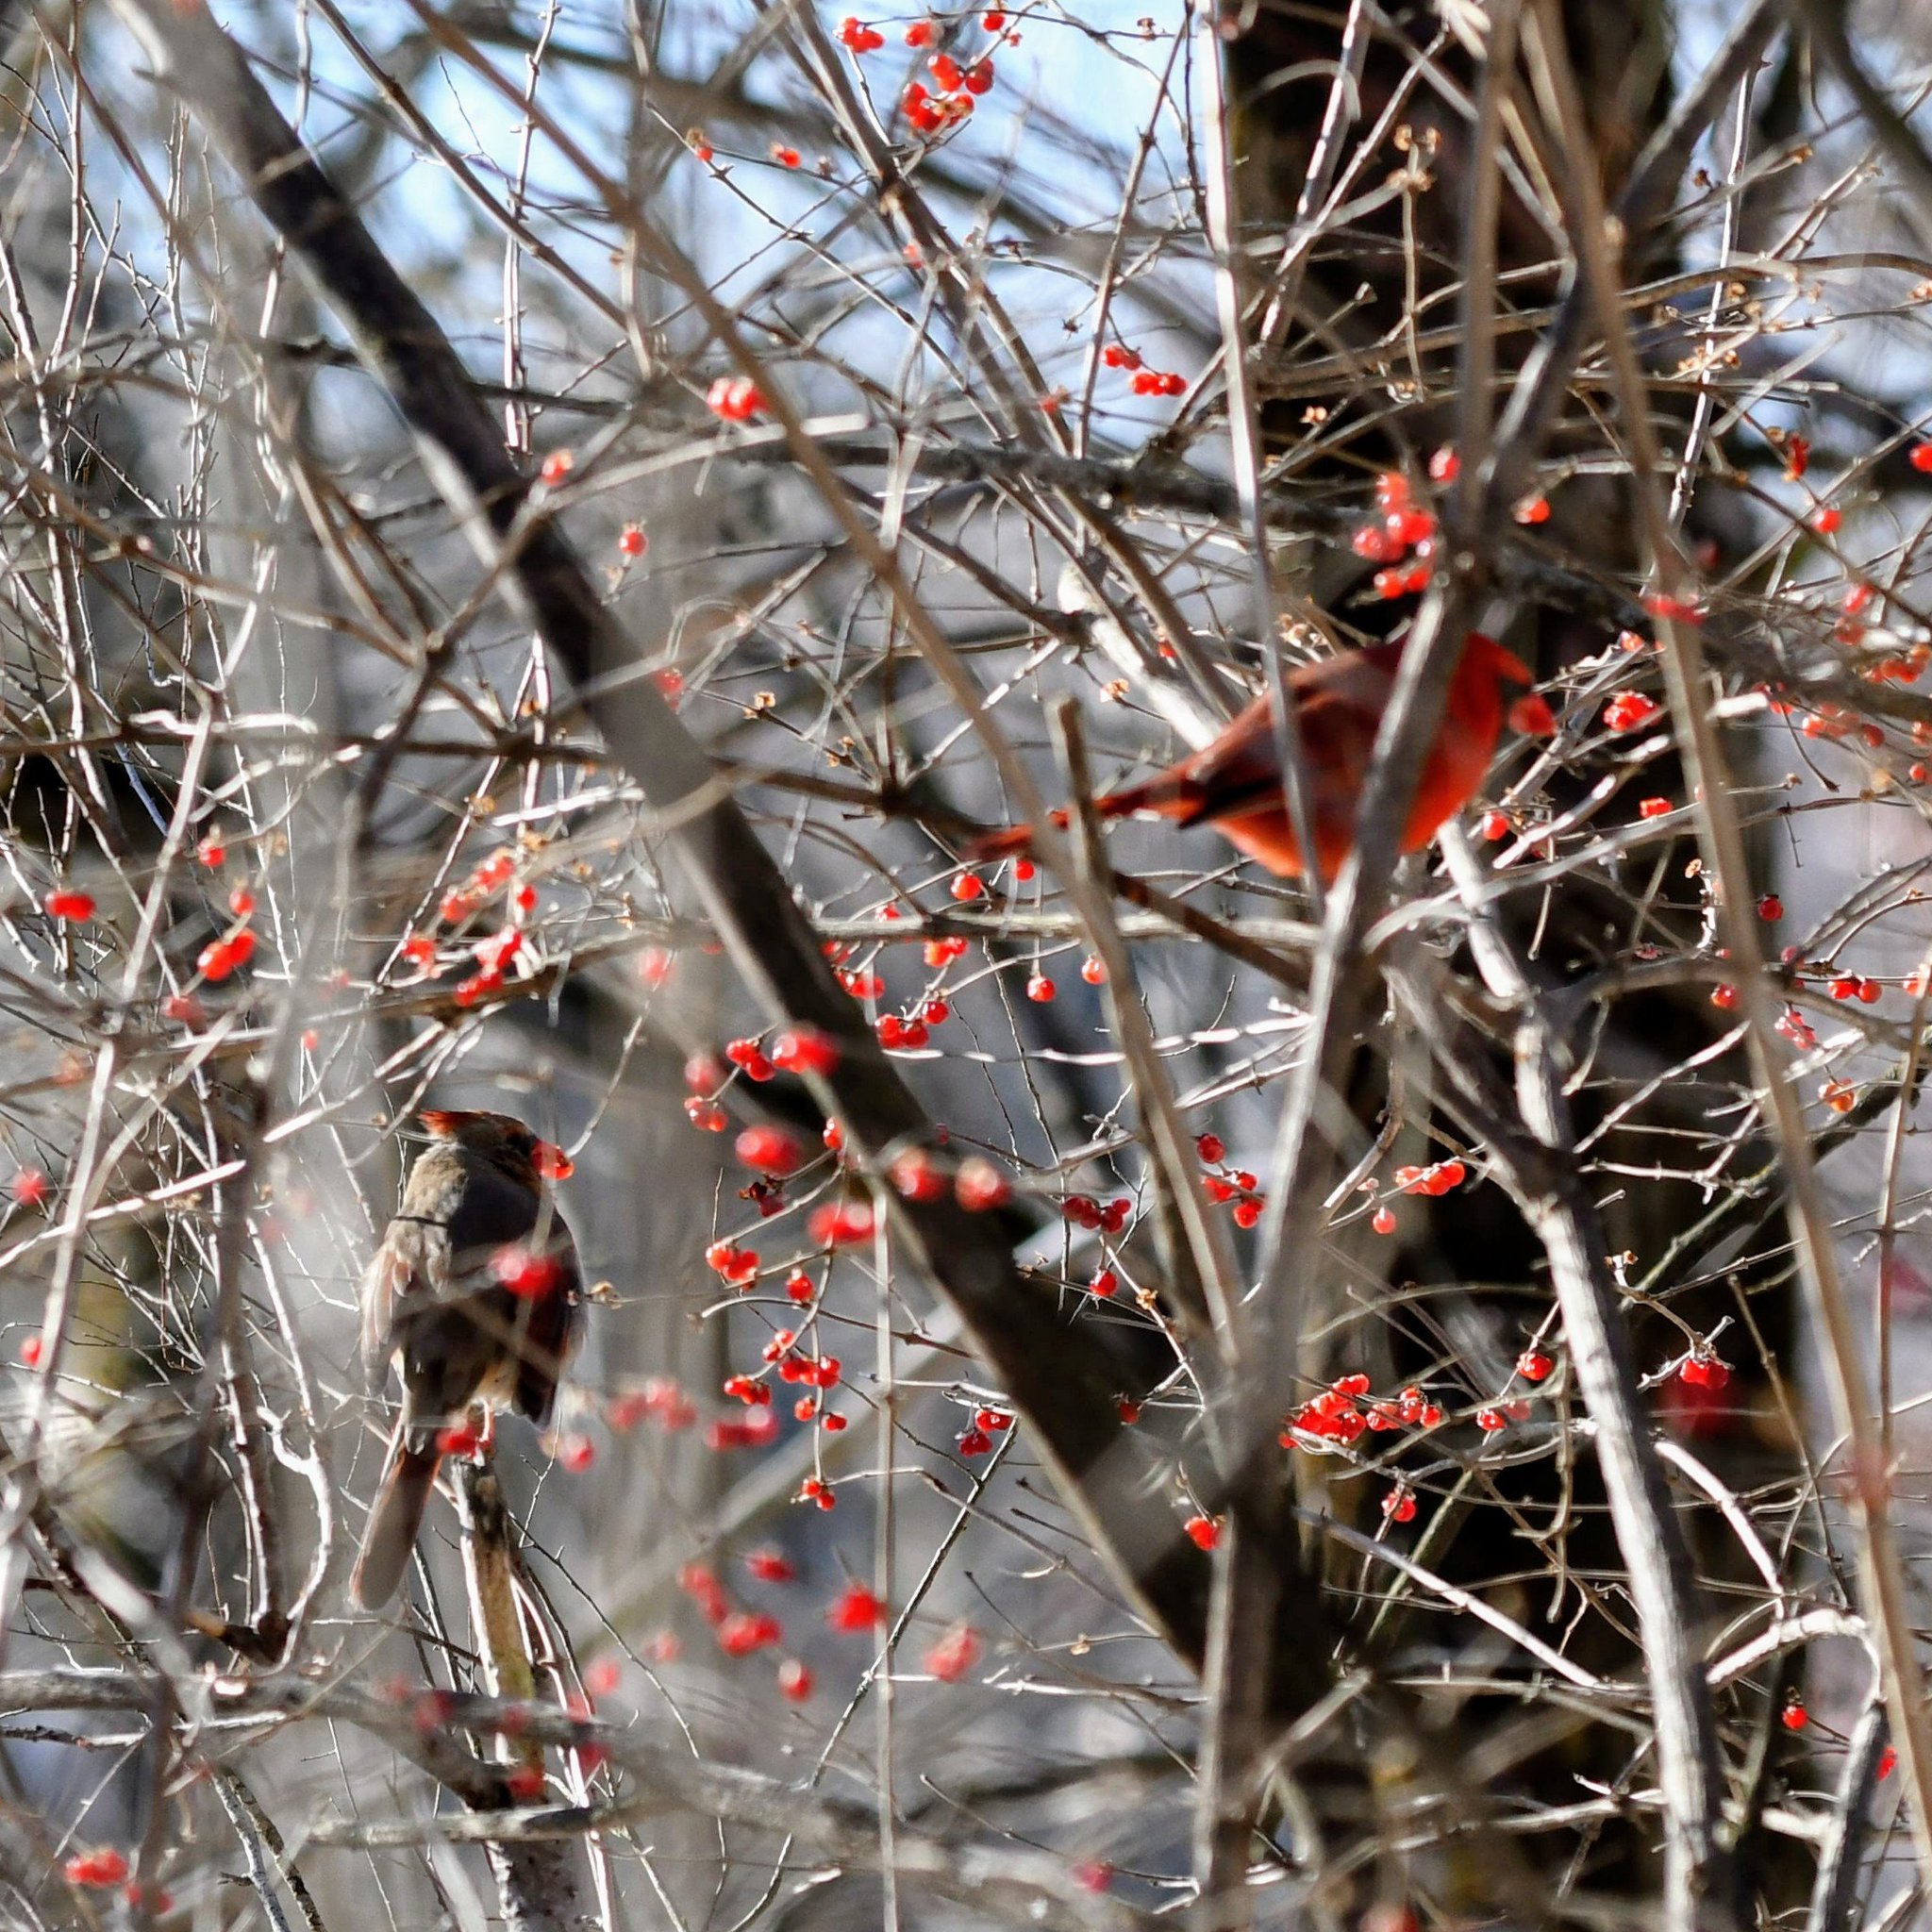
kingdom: Animalia
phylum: Chordata
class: Aves
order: Passeriformes
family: Cardinalidae
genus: Cardinalis
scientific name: Cardinalis cardinalis
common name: Northern cardinal
